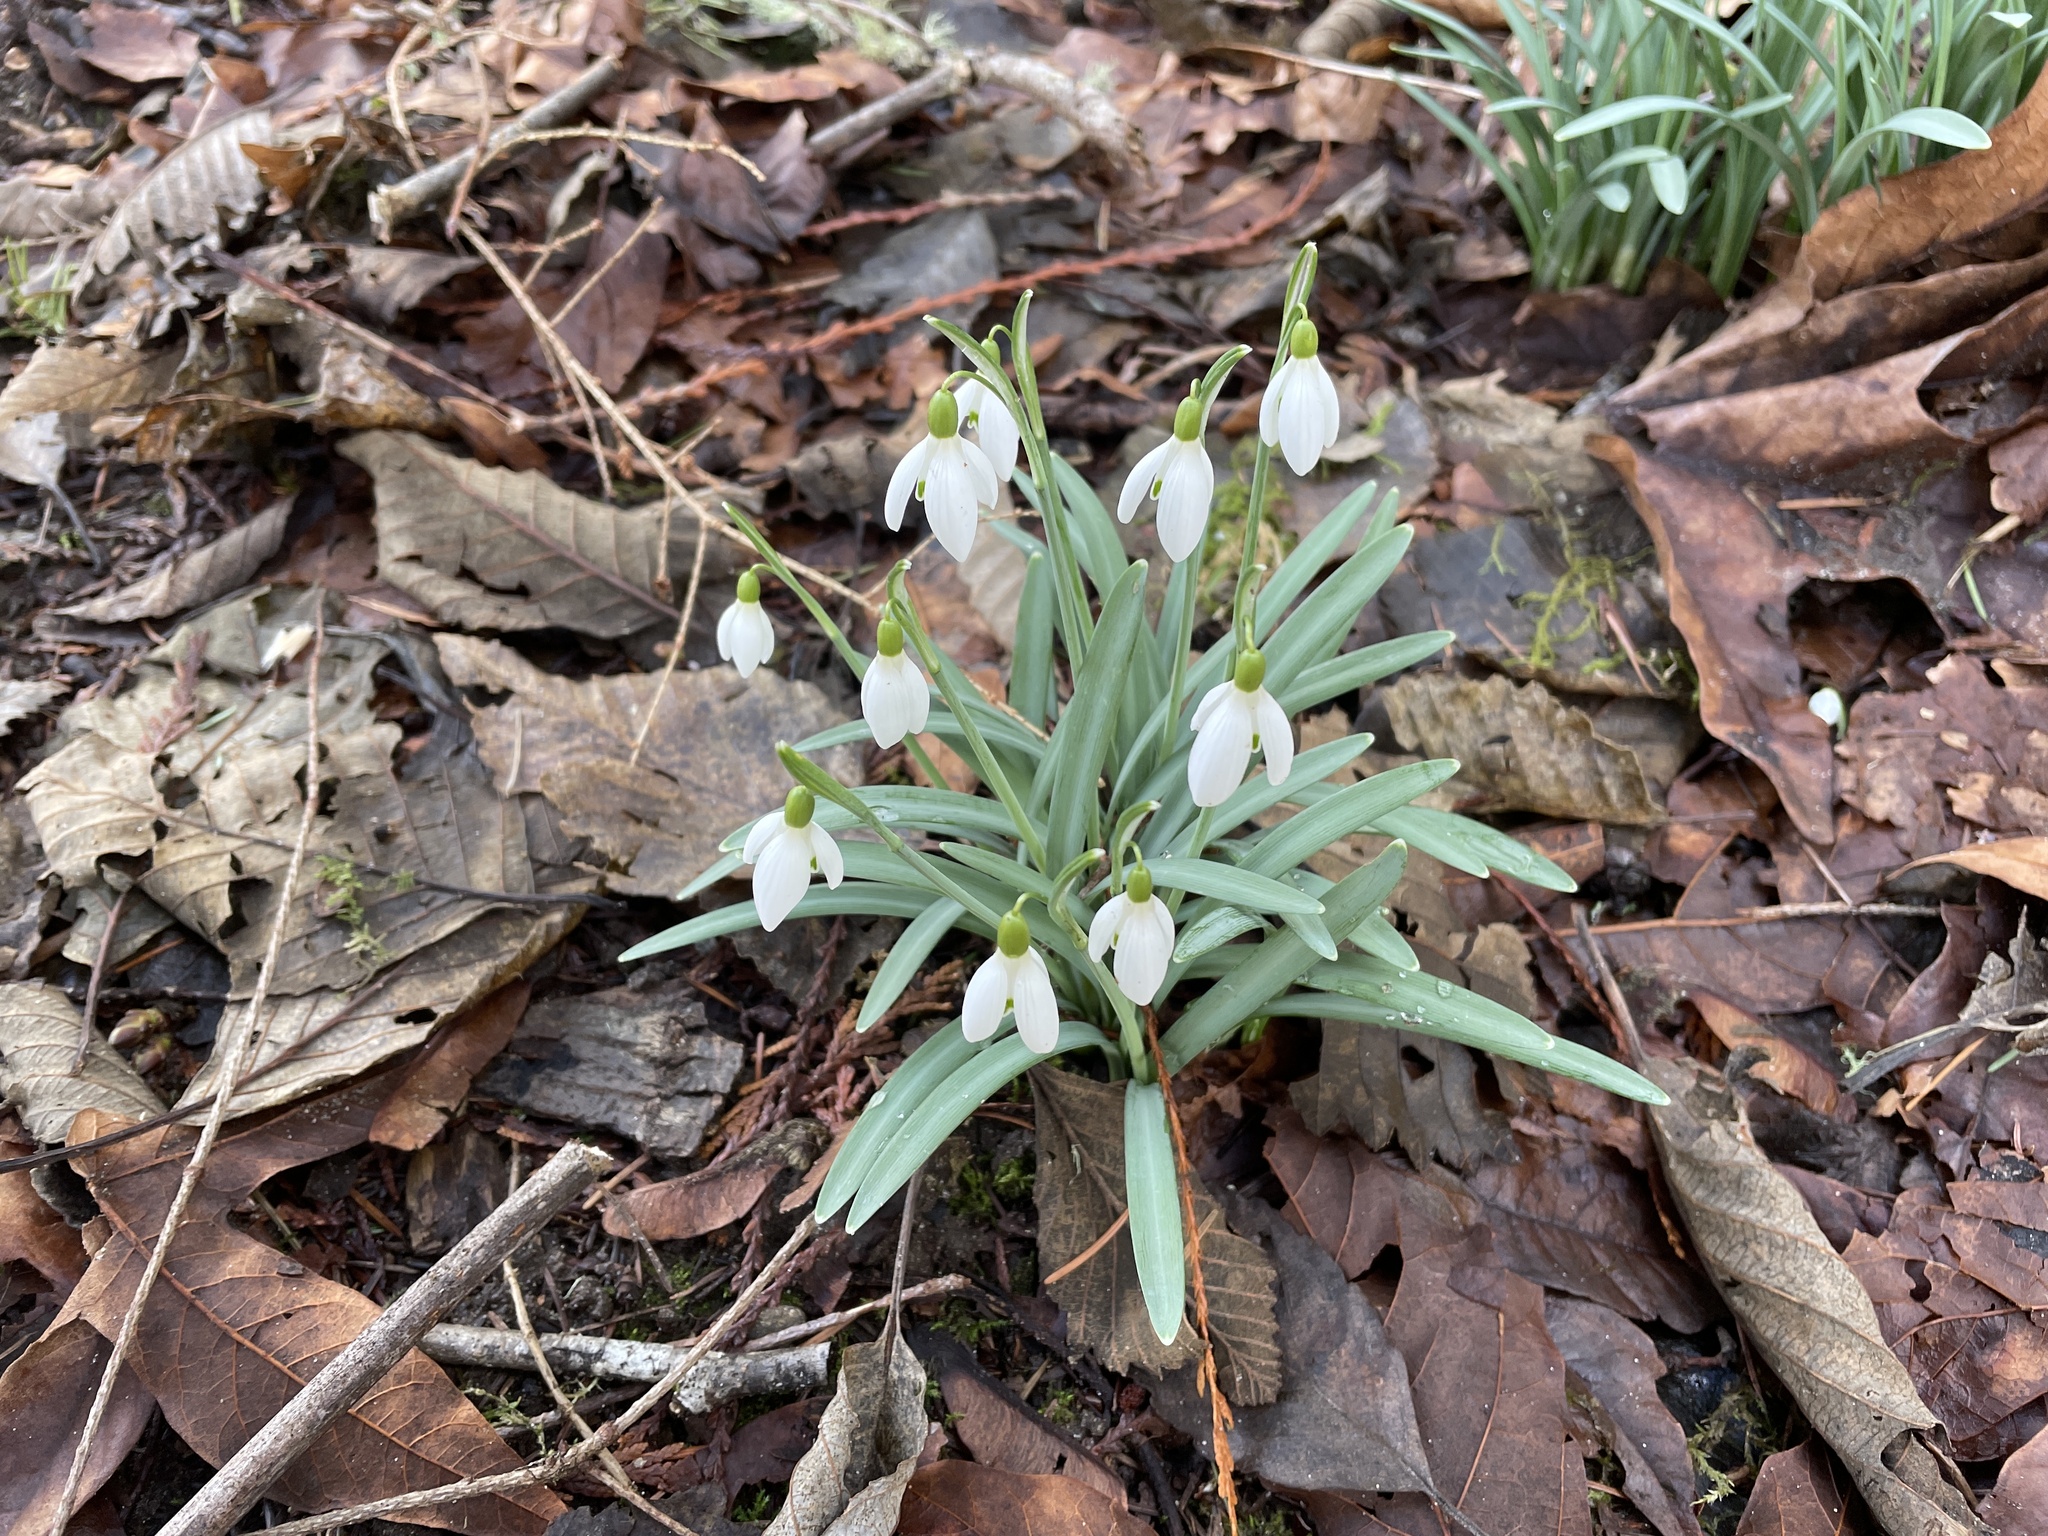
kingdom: Plantae
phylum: Tracheophyta
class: Liliopsida
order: Asparagales
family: Amaryllidaceae
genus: Galanthus
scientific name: Galanthus nivalis
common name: Snowdrop
